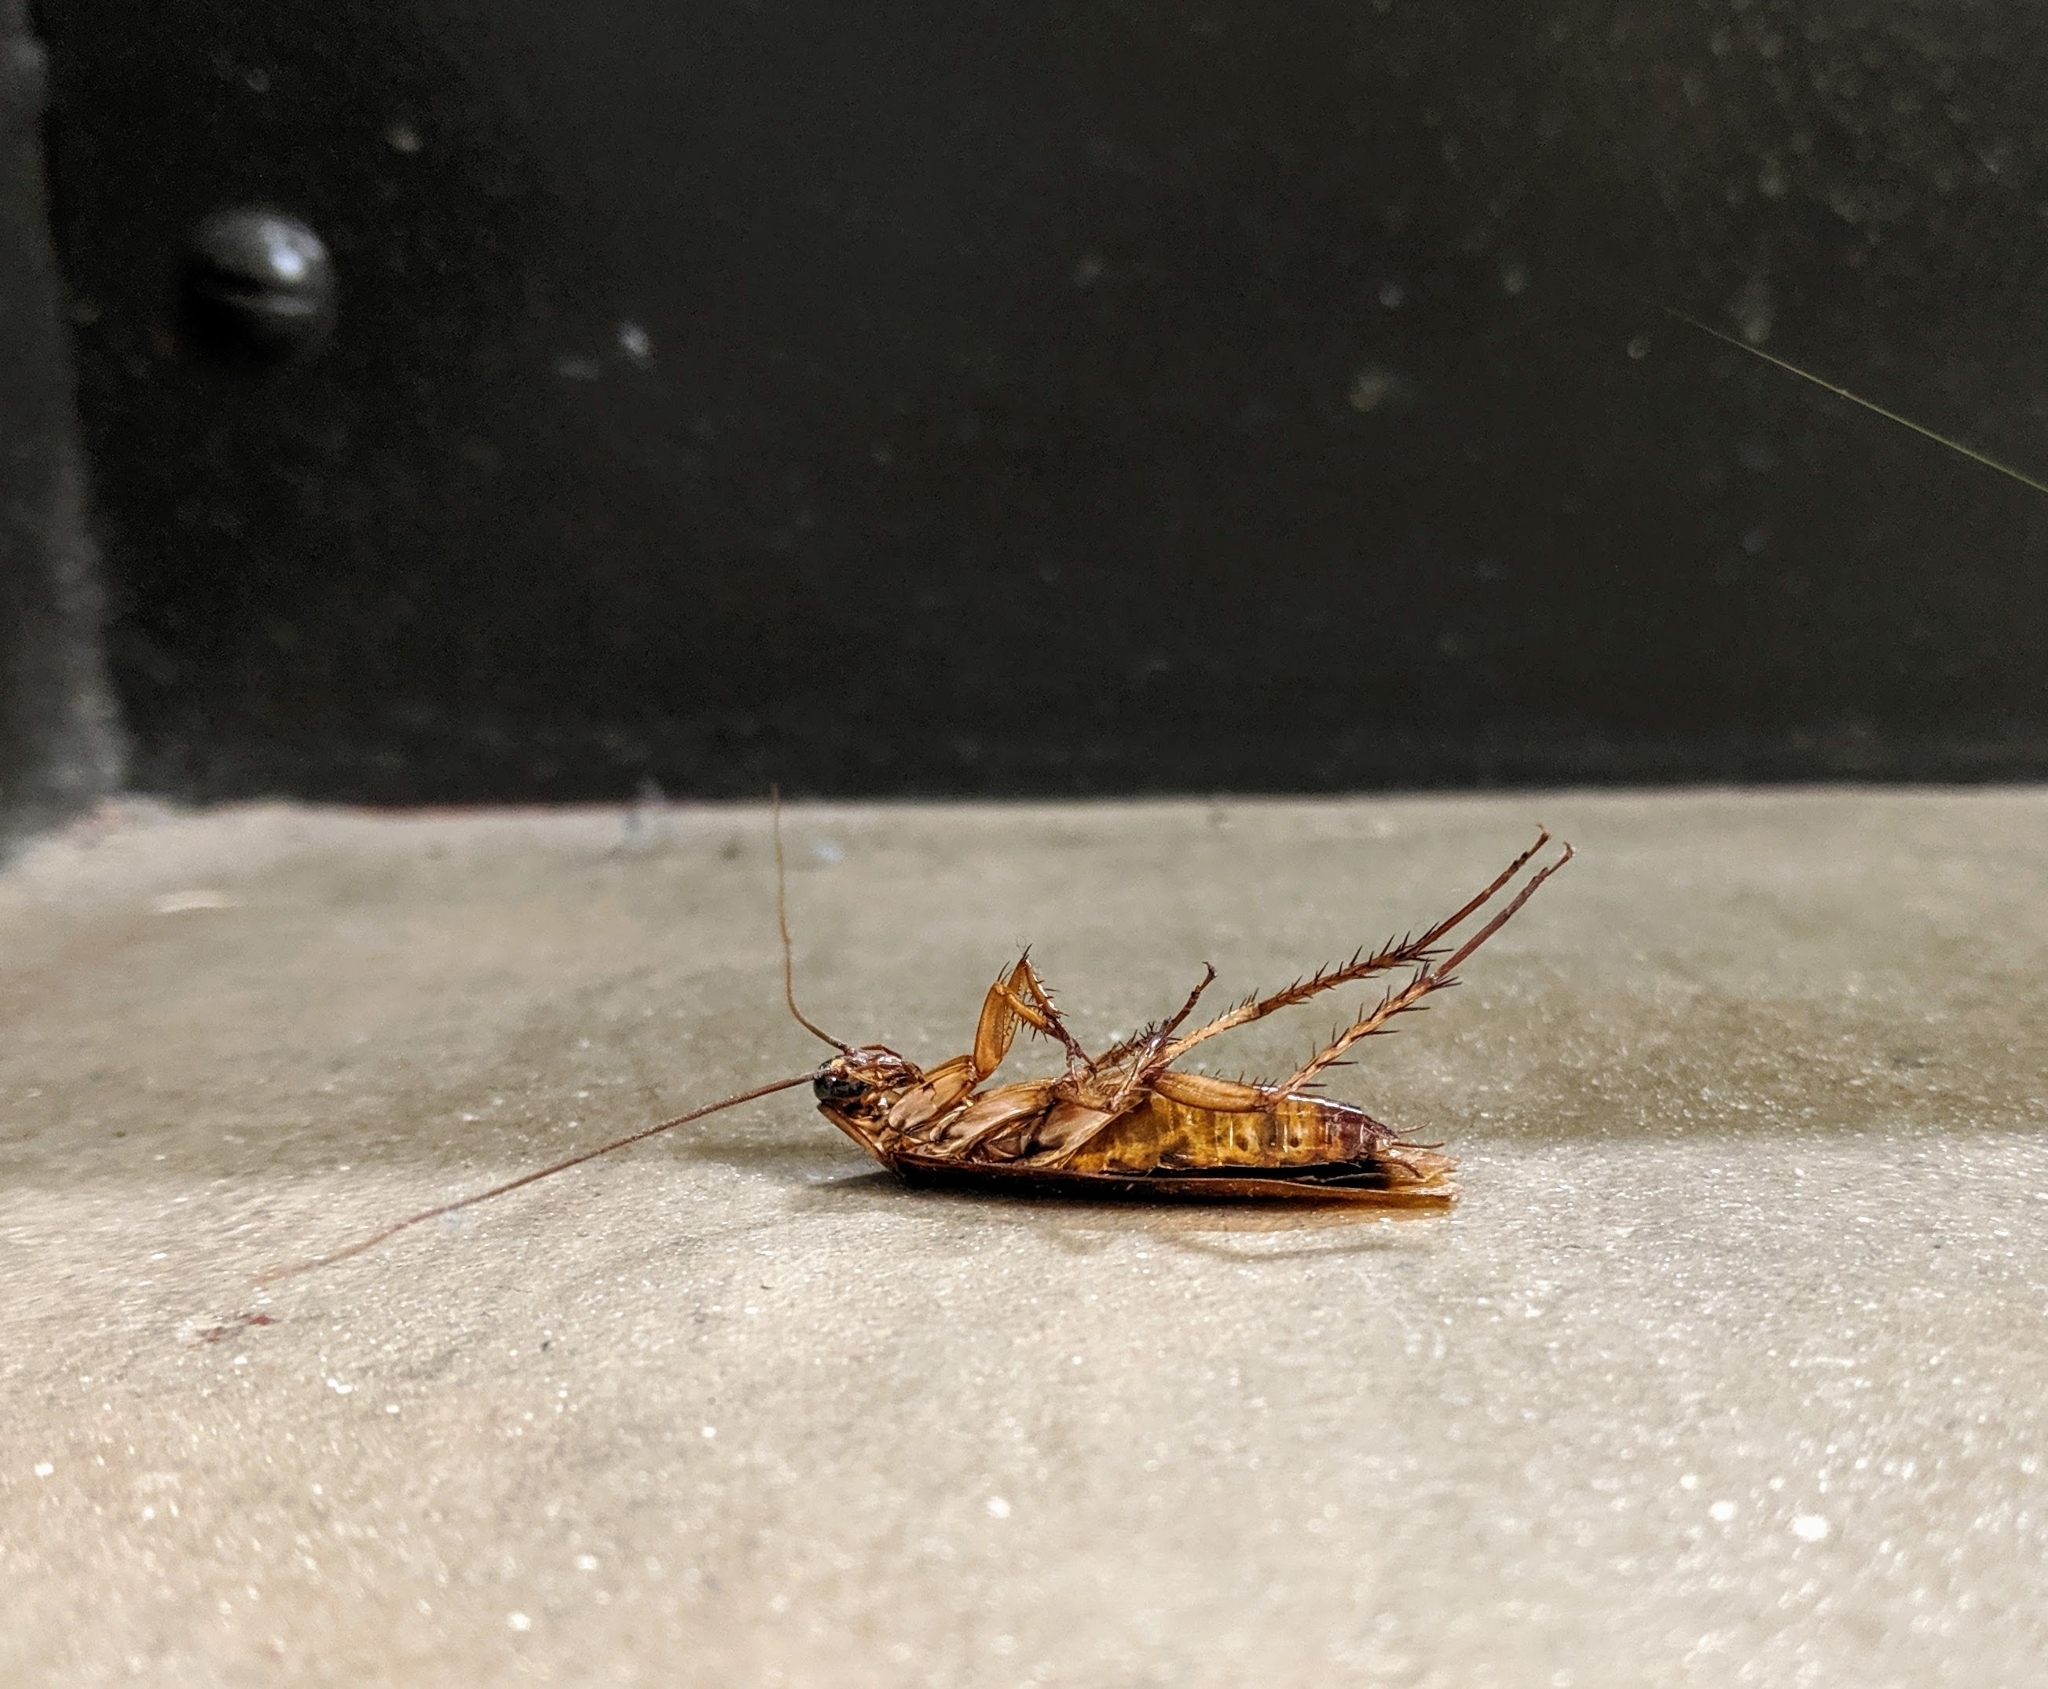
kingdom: Animalia
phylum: Arthropoda
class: Insecta
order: Blattodea
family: Blattidae
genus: Periplaneta
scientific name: Periplaneta americana
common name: American cockroach
